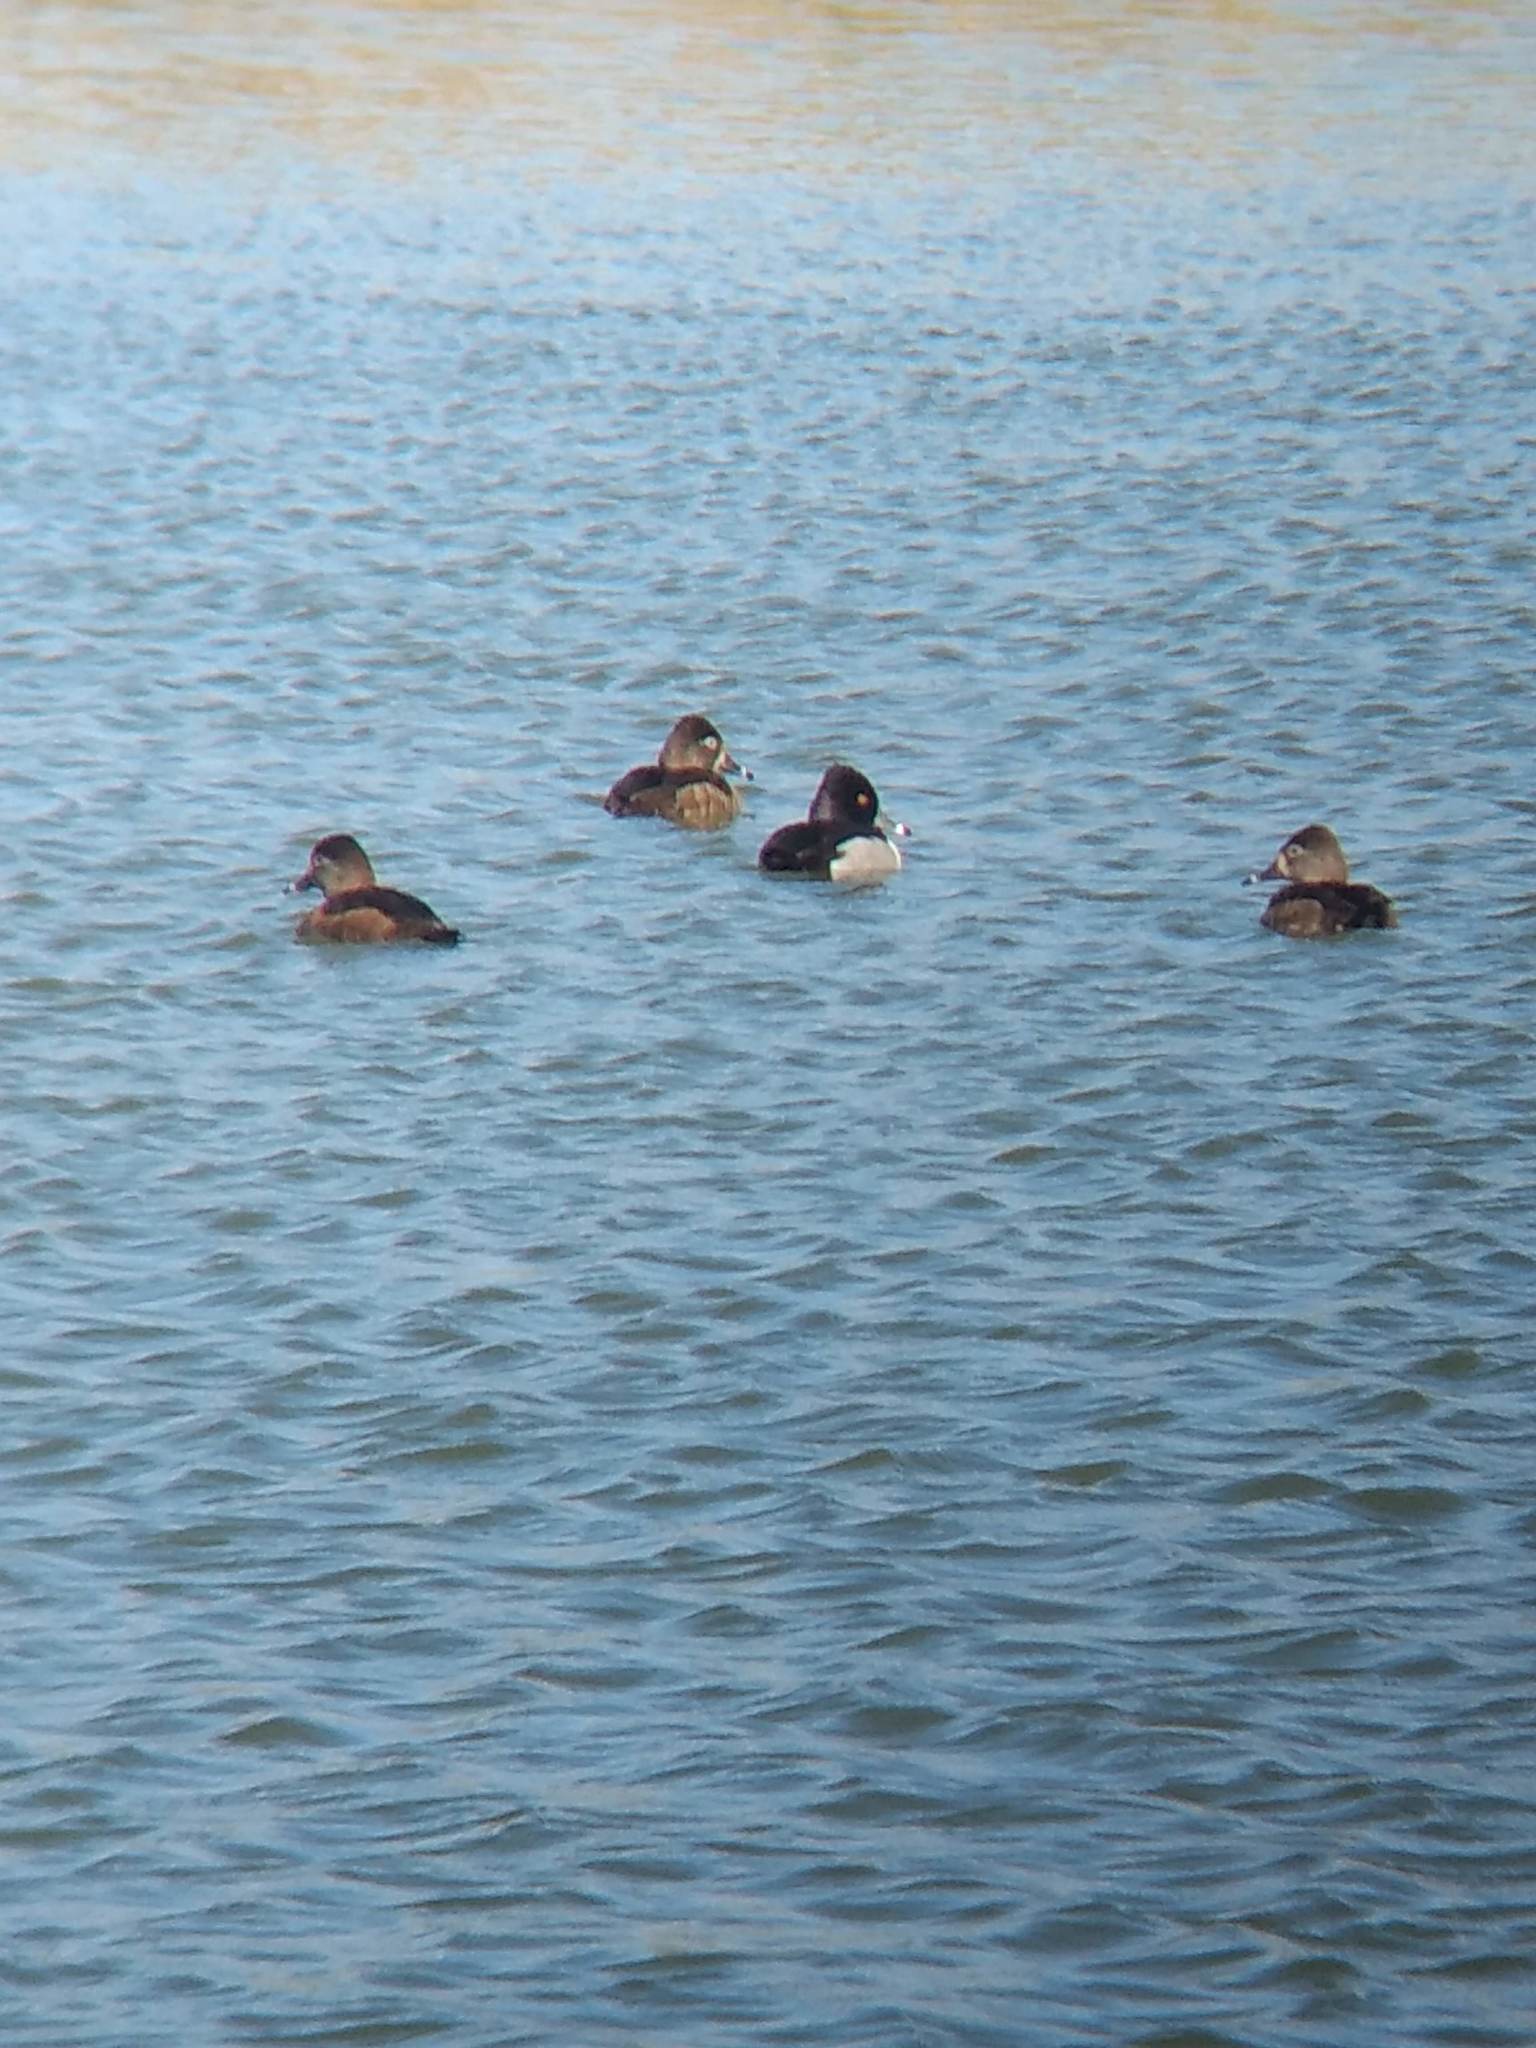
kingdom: Animalia
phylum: Chordata
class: Aves
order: Anseriformes
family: Anatidae
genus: Aythya
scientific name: Aythya collaris
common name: Ring-necked duck
